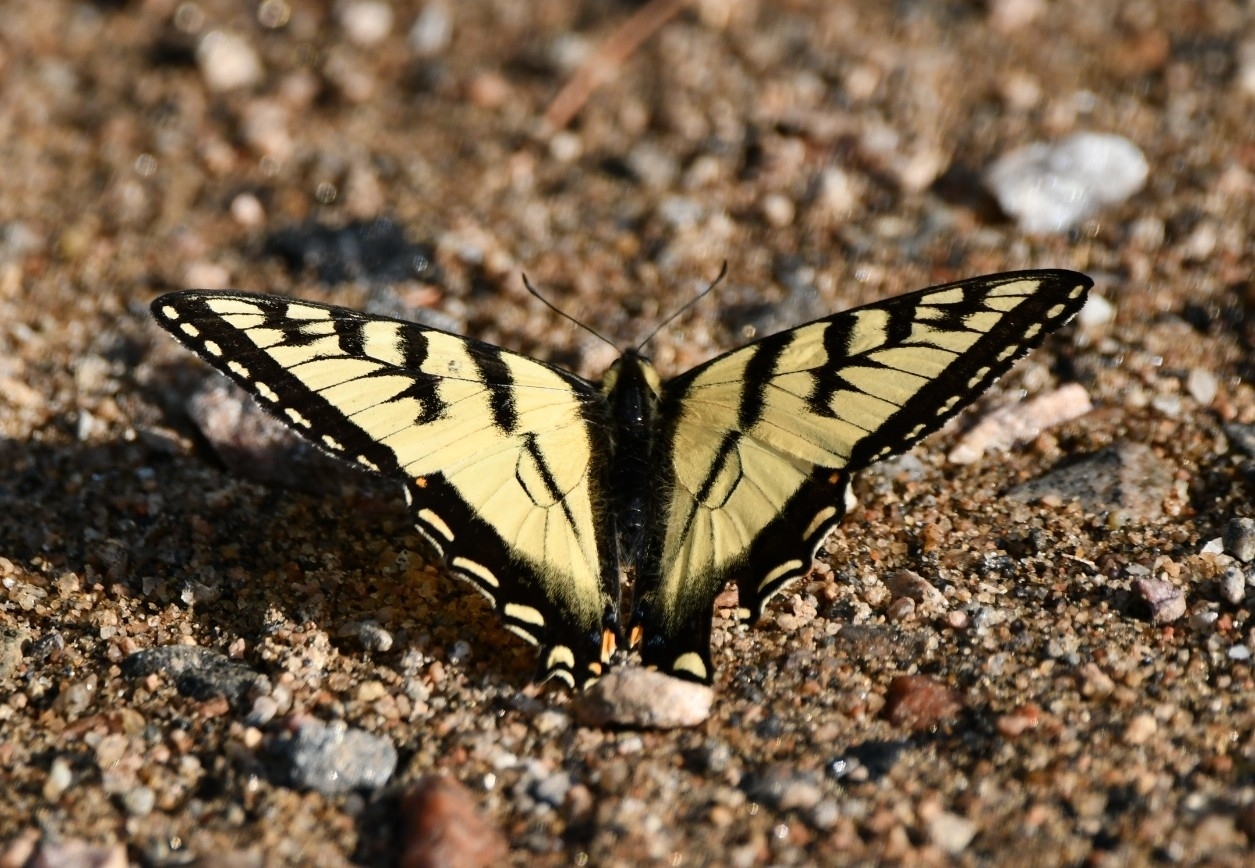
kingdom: Animalia
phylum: Arthropoda
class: Insecta
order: Lepidoptera
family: Papilionidae
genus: Papilio
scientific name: Papilio canadensis
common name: Canadian tiger swallowtail
